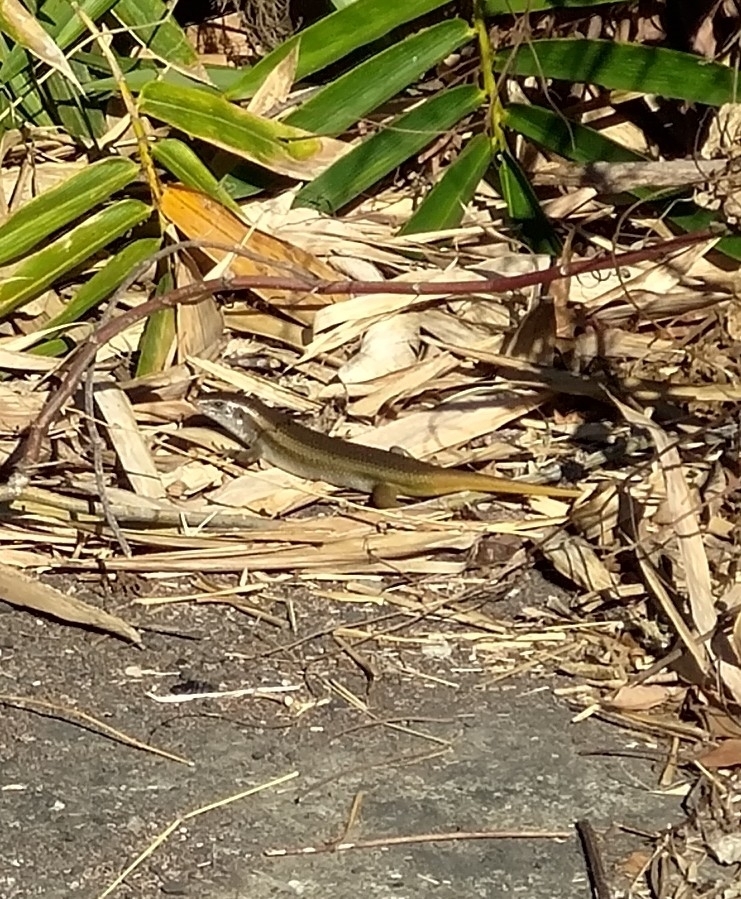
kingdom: Animalia
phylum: Chordata
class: Squamata
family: Scincidae
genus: Eutropis
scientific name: Eutropis multifasciata
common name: Common mabuya
